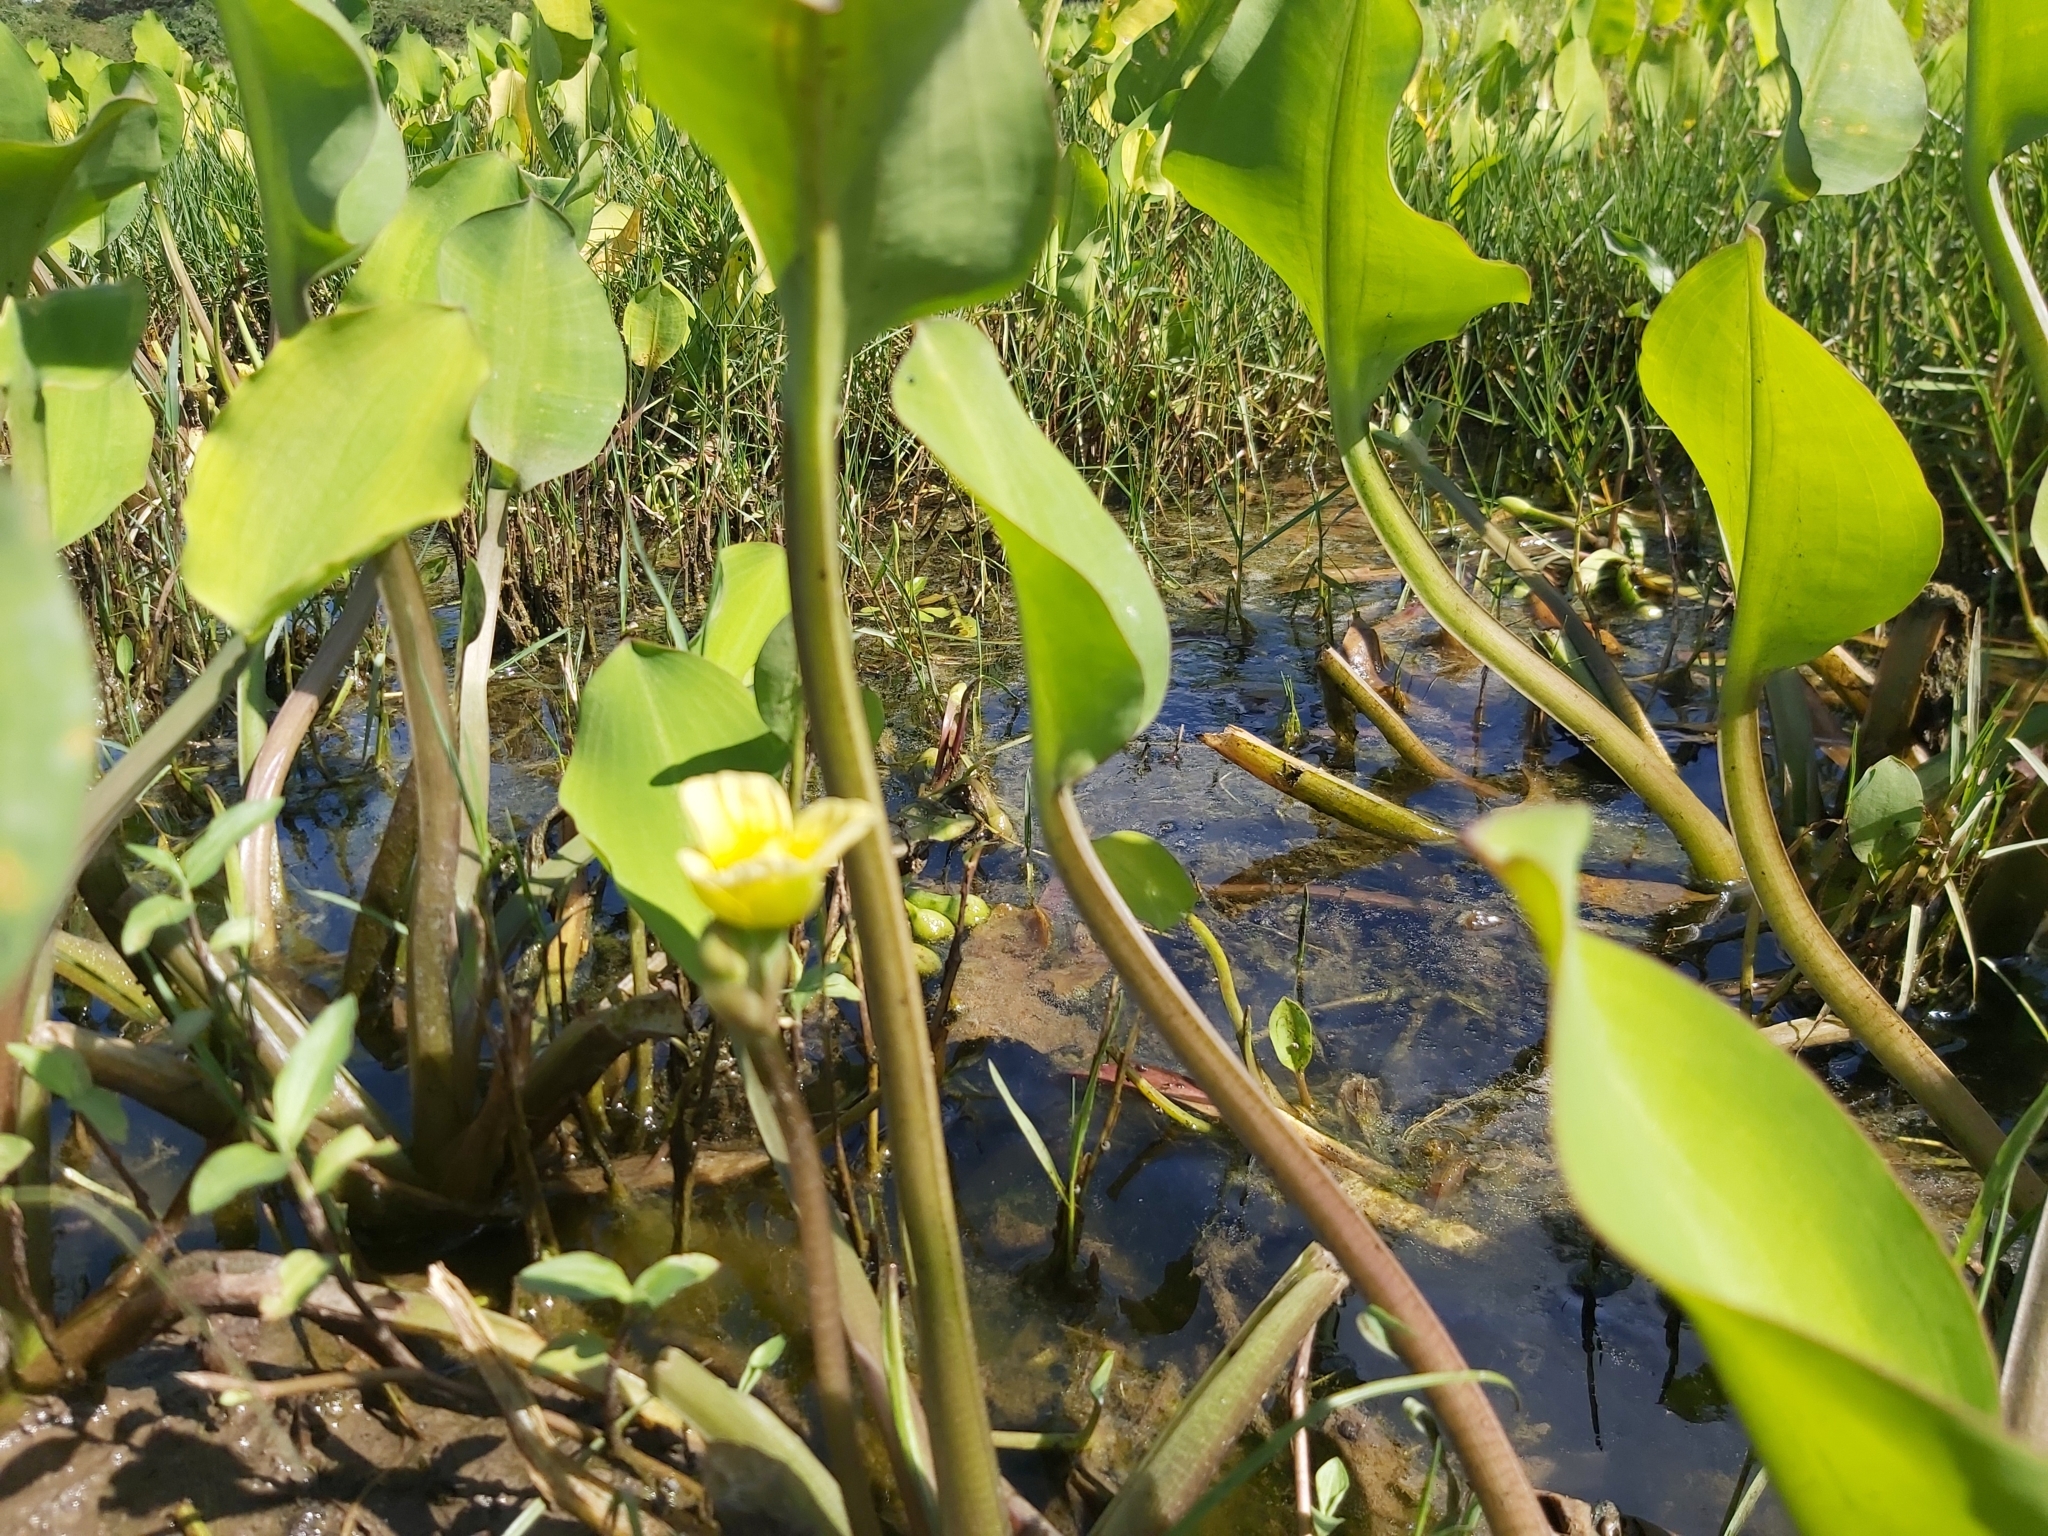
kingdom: Plantae
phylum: Tracheophyta
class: Liliopsida
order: Alismatales
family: Alismataceae
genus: Limnocharis
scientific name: Limnocharis flava
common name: Sawah-flower-rush
